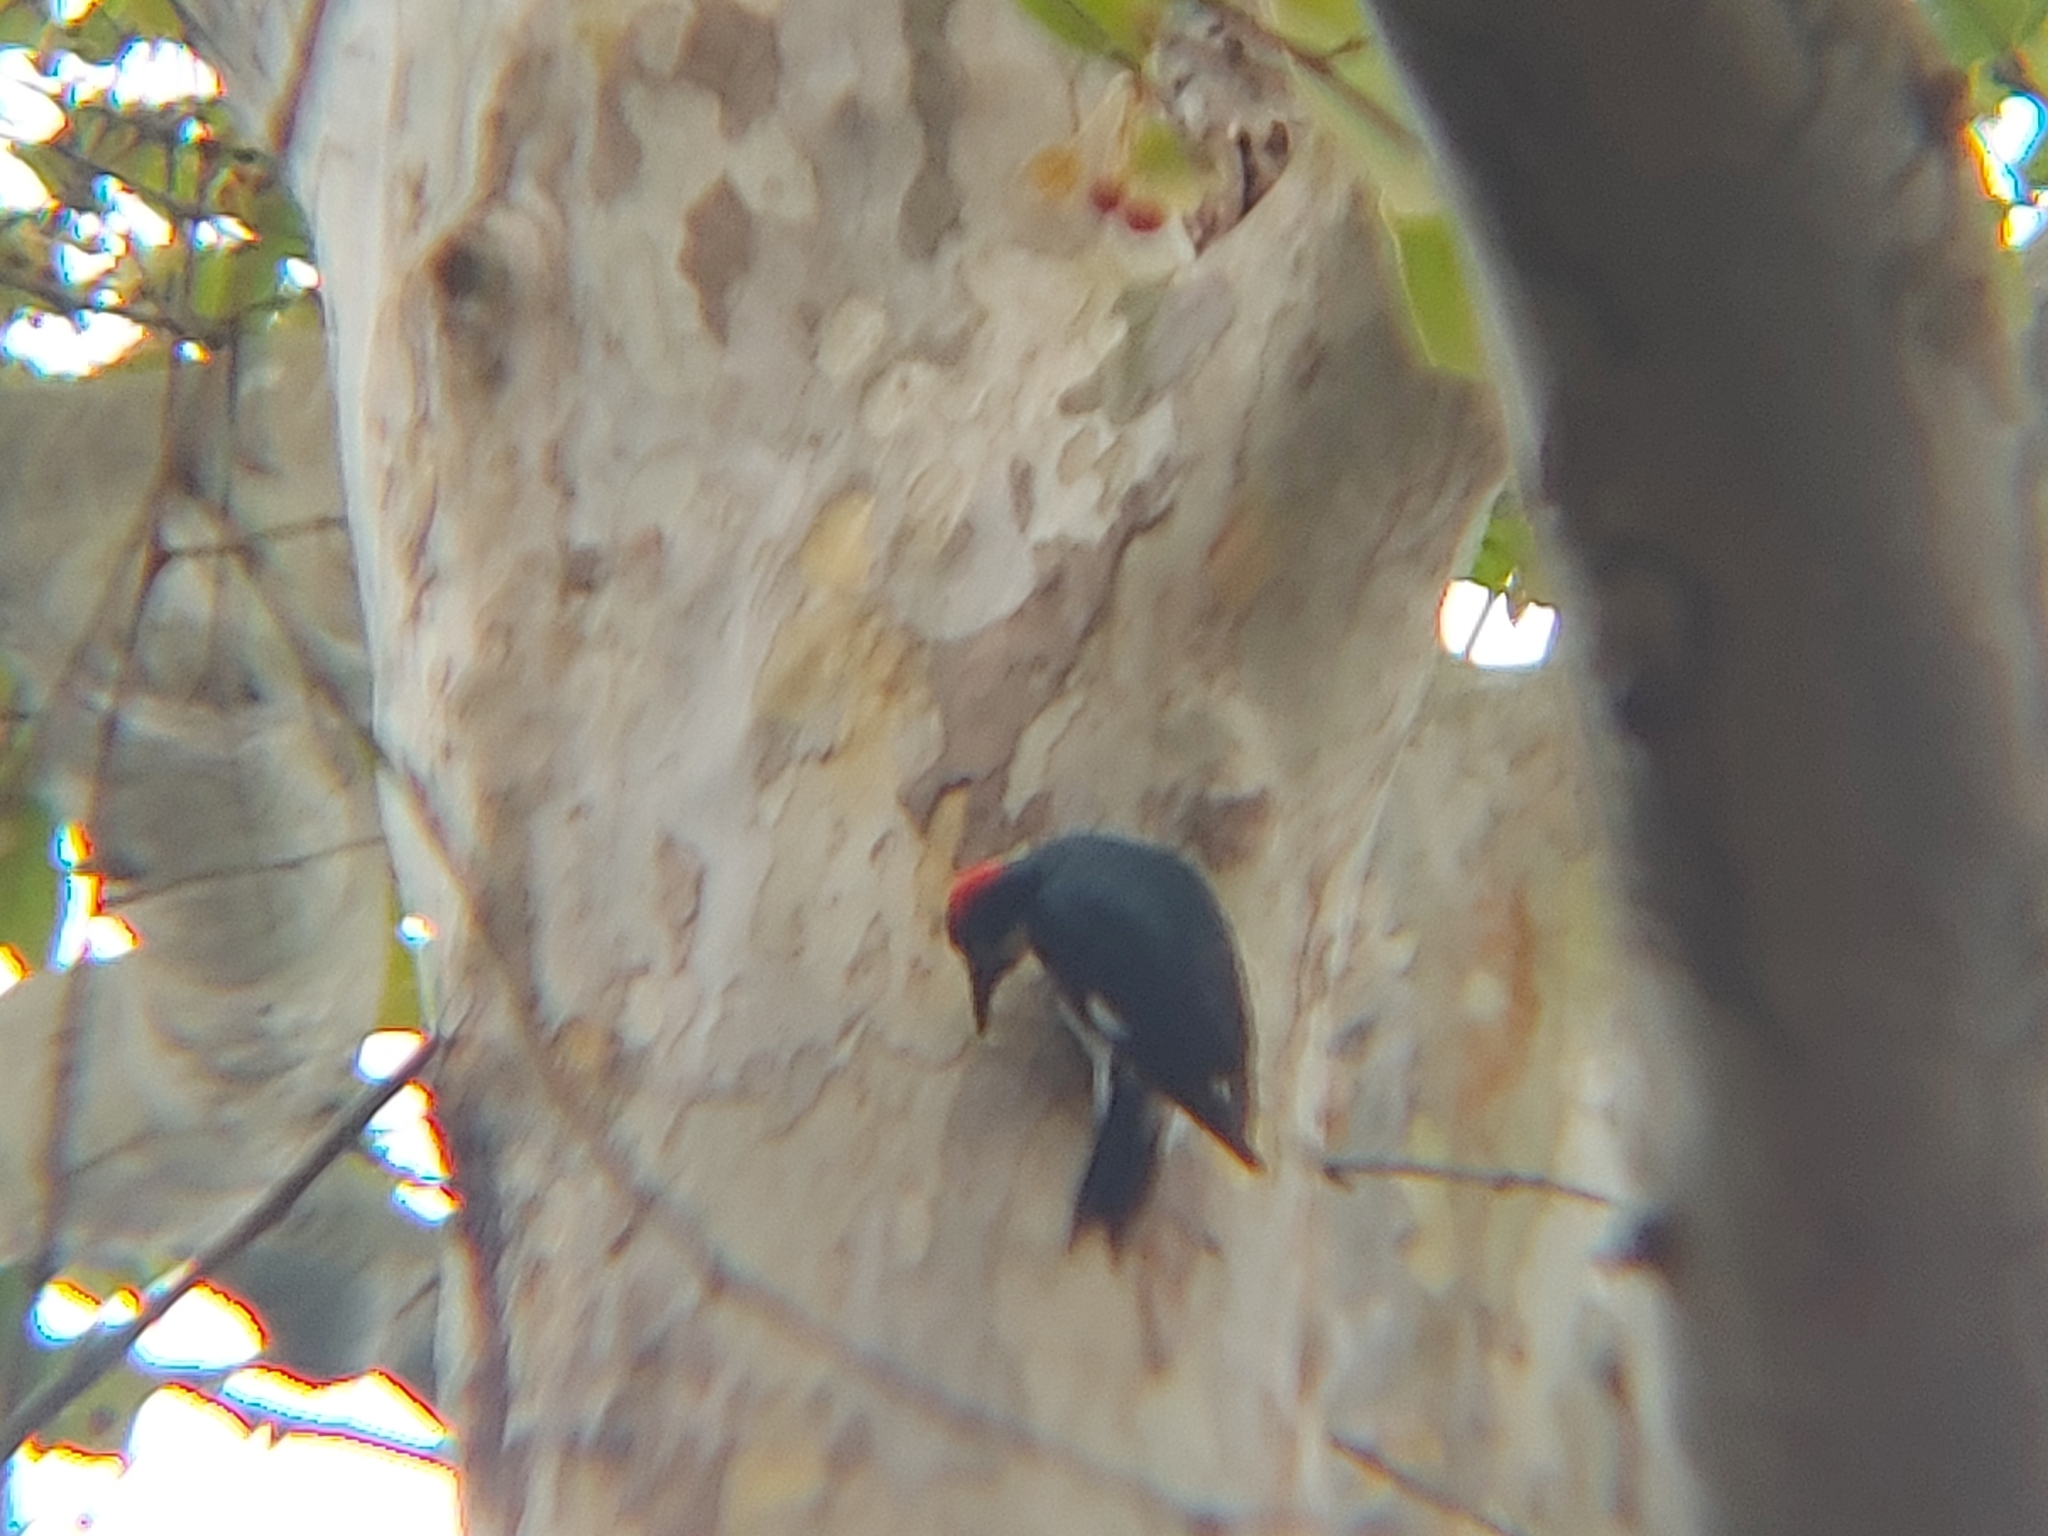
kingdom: Animalia
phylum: Chordata
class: Aves
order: Piciformes
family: Picidae
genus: Melanerpes
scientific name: Melanerpes formicivorus
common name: Acorn woodpecker
